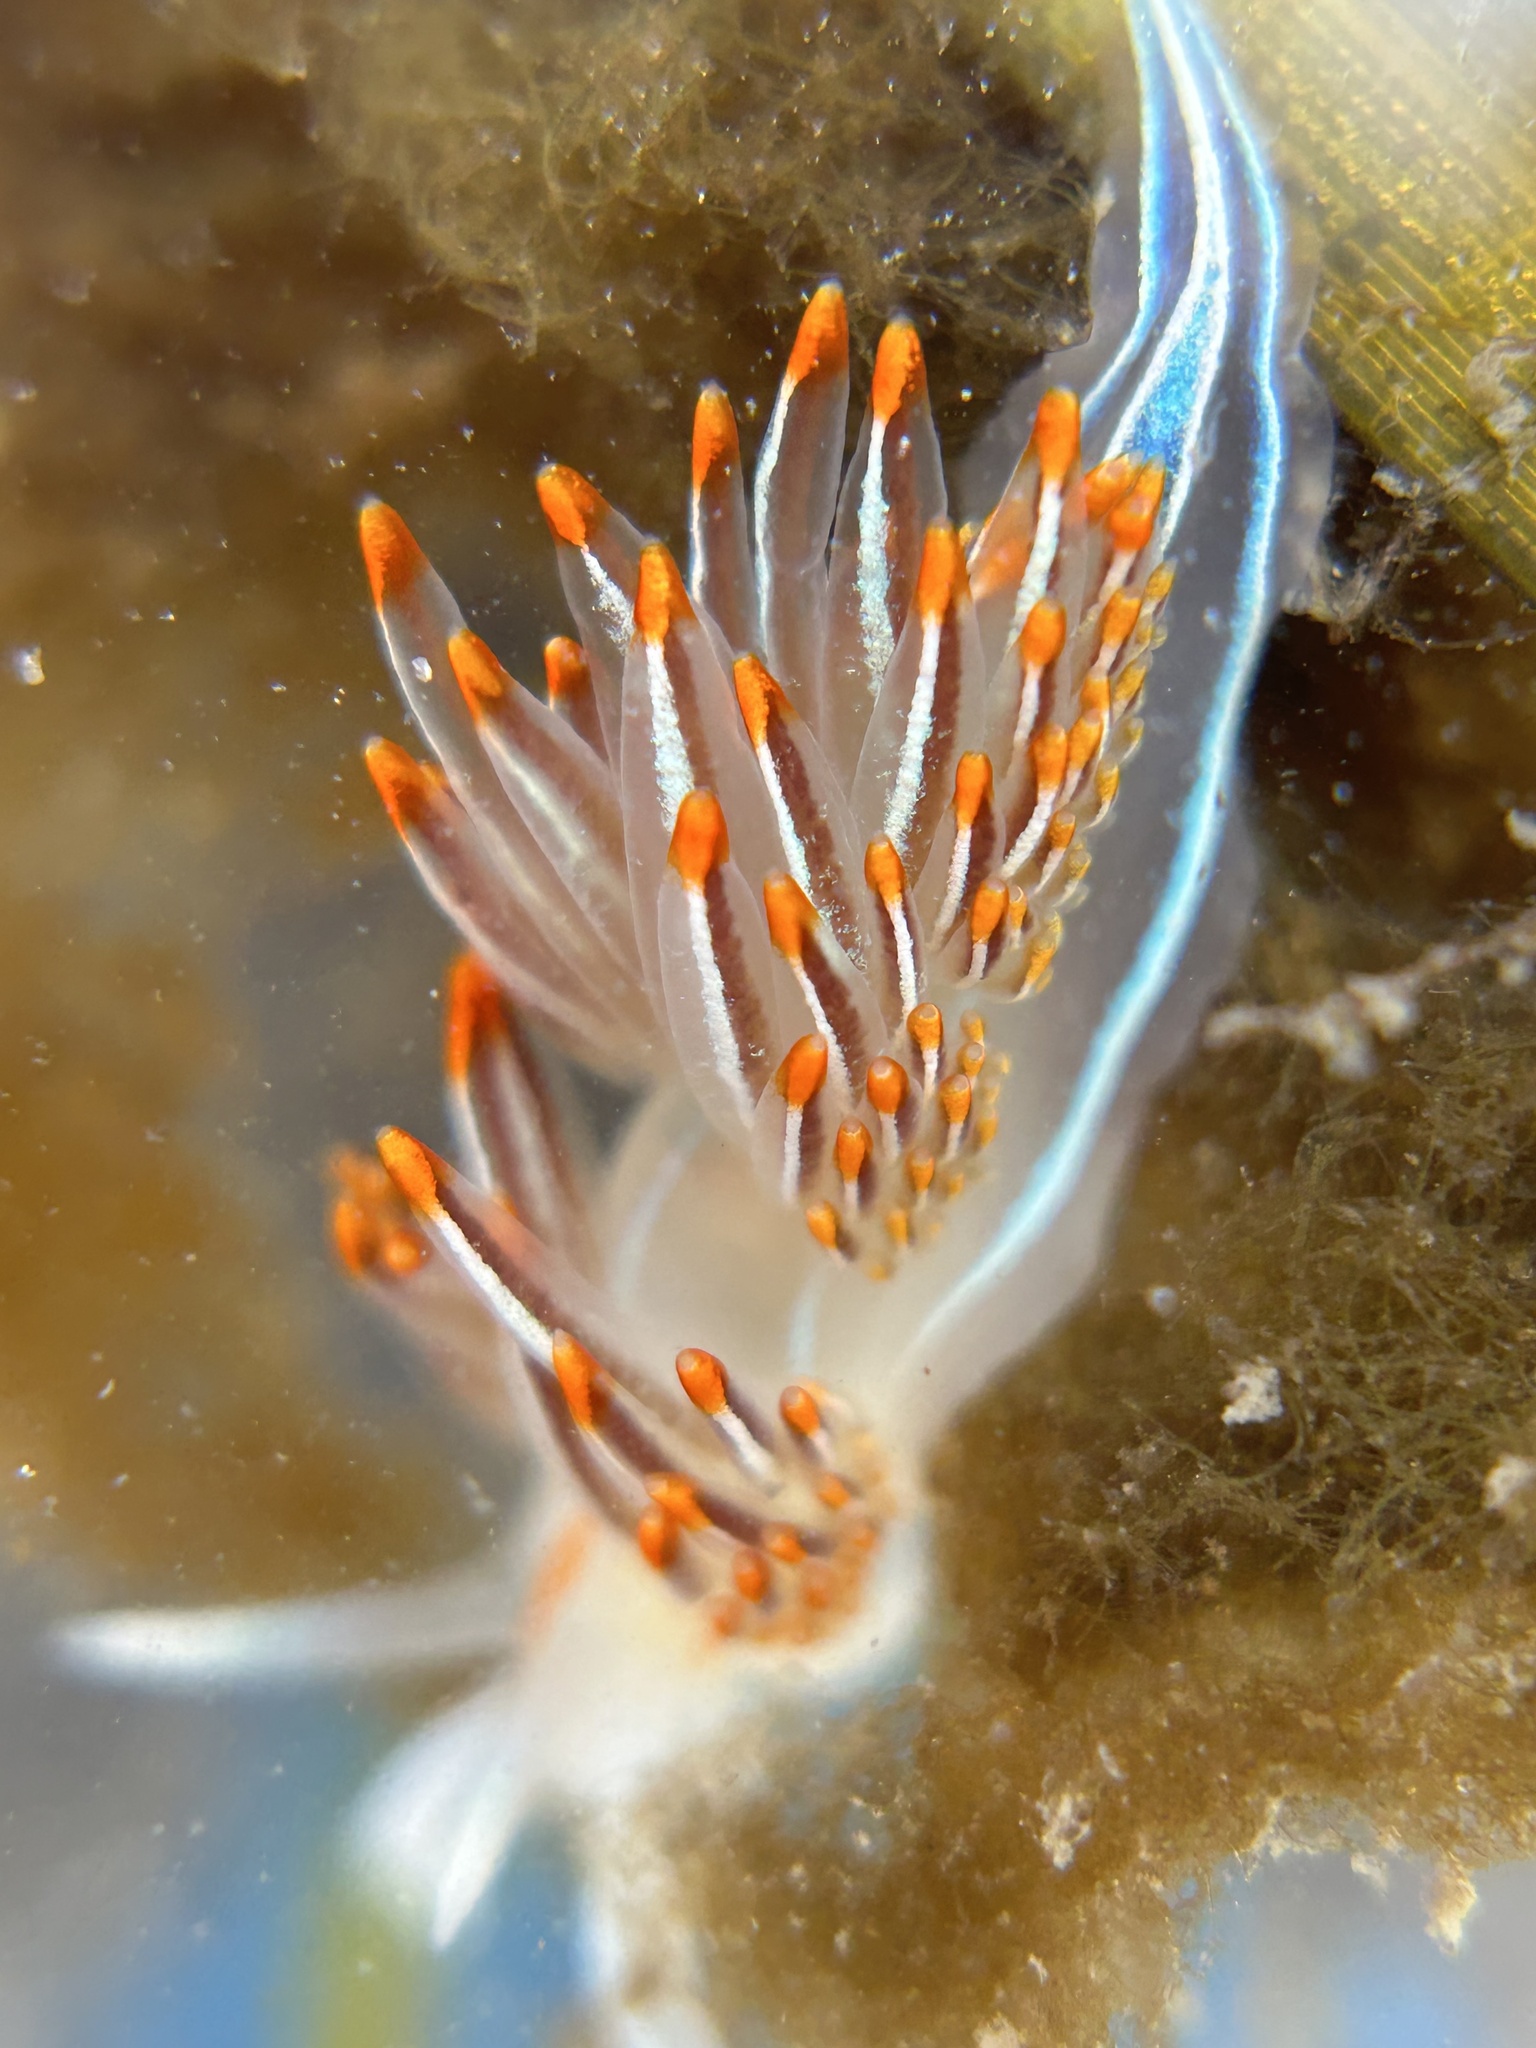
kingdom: Animalia
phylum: Mollusca
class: Gastropoda
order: Nudibranchia
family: Myrrhinidae
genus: Hermissenda
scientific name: Hermissenda crassicornis
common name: Hermissenda
